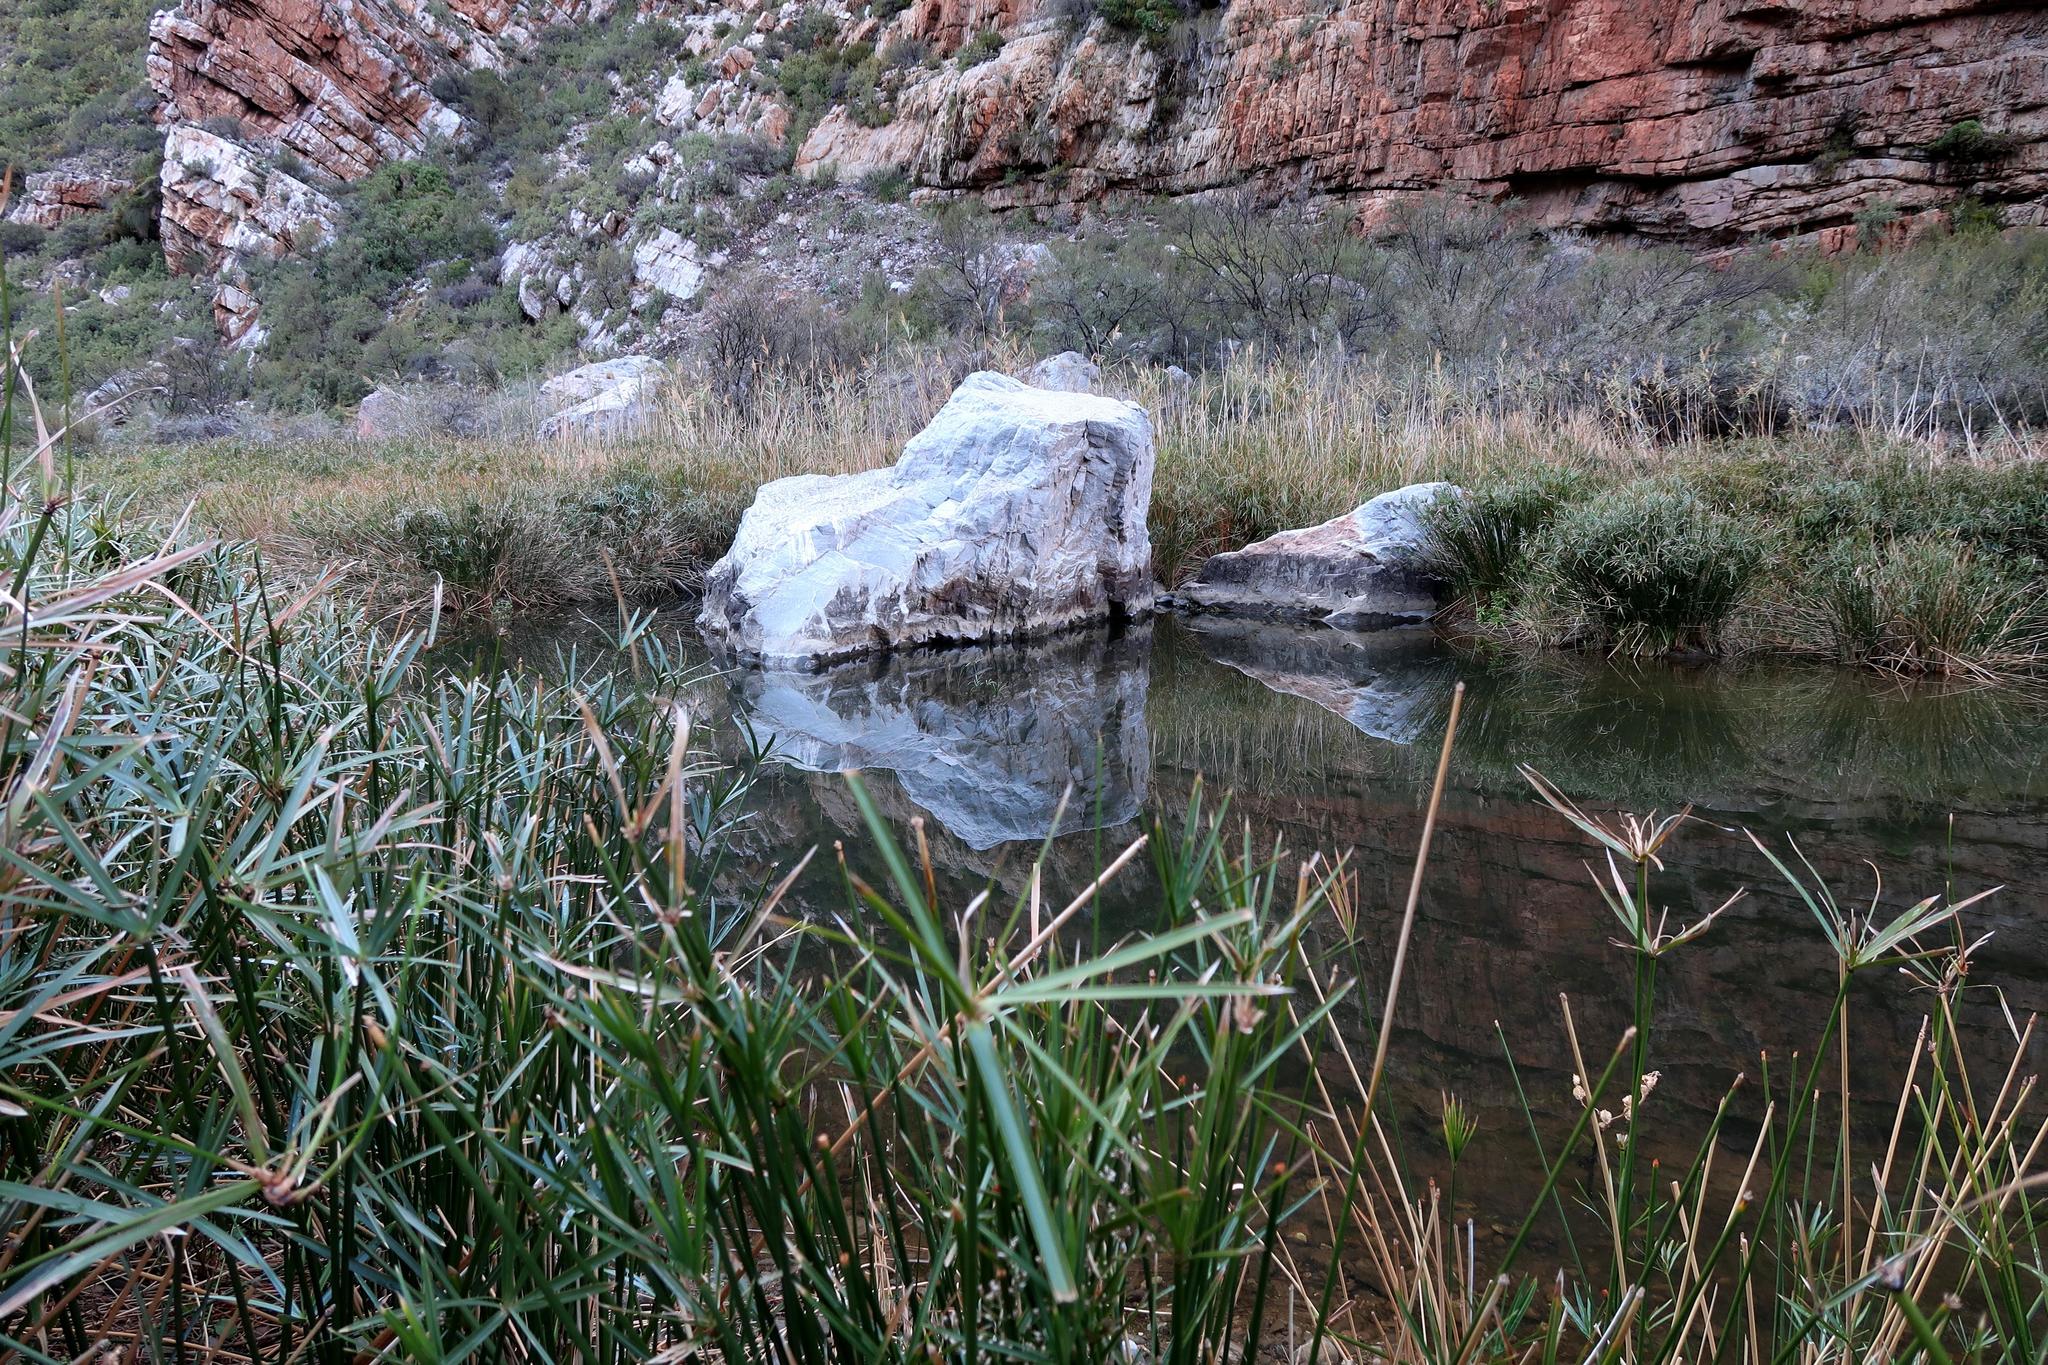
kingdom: Plantae
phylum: Tracheophyta
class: Liliopsida
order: Poales
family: Cyperaceae
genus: Cyperus
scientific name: Cyperus textilis
